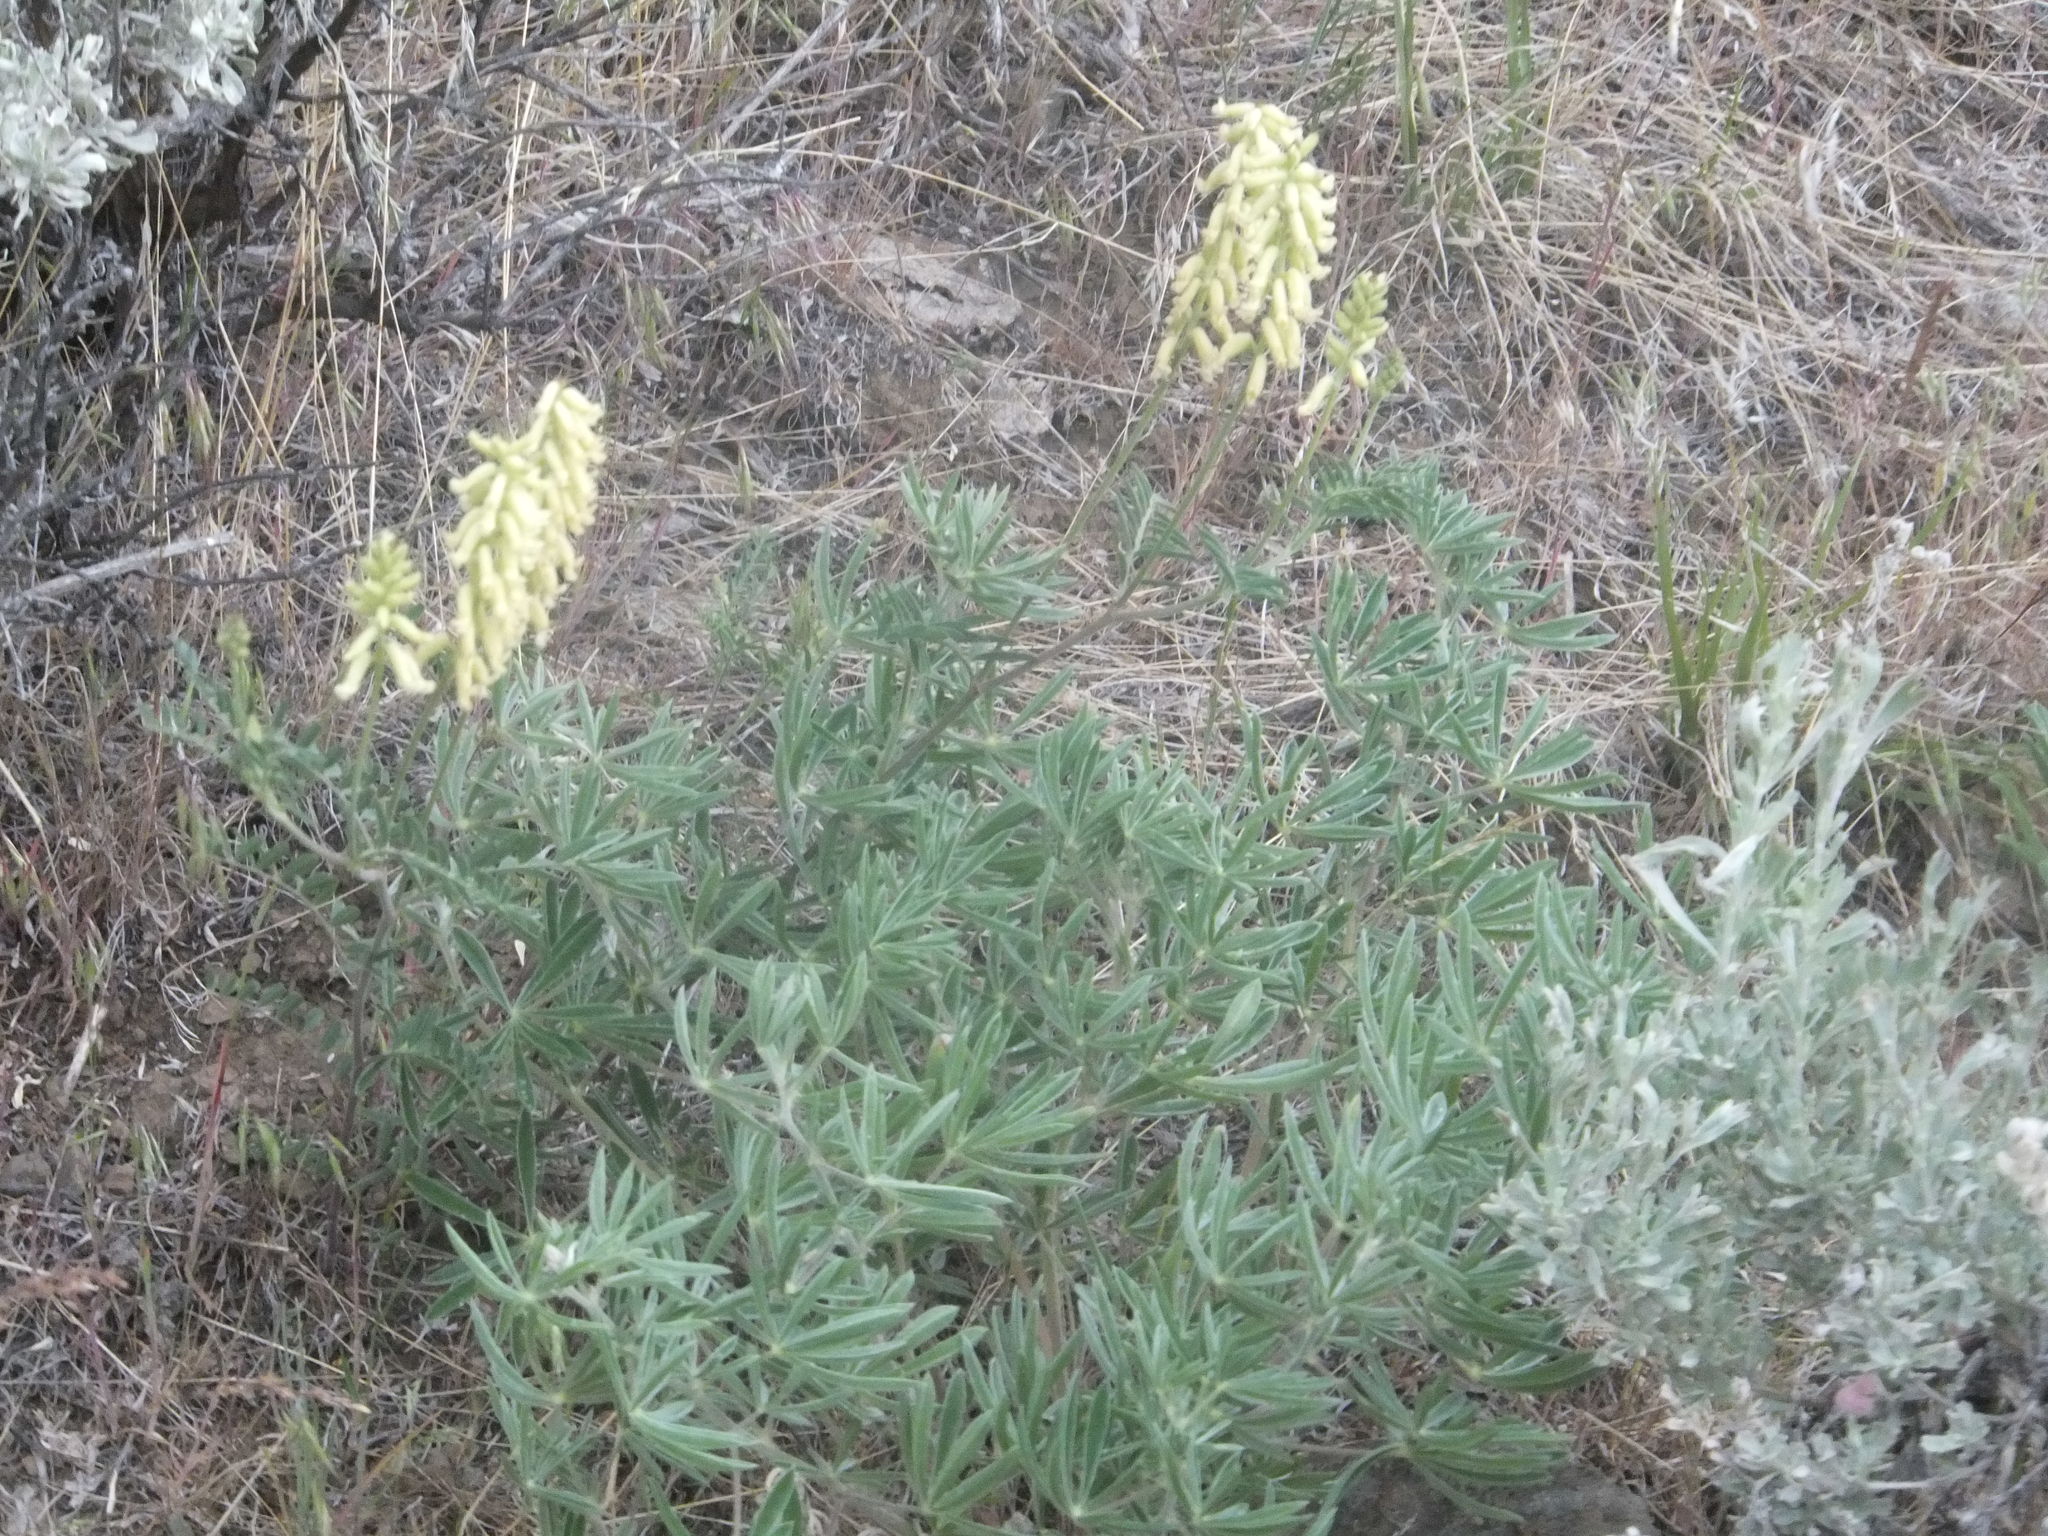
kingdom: Plantae
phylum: Tracheophyta
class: Magnoliopsida
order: Fabales
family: Fabaceae
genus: Astragalus
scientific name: Astragalus collinus
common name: Hill milk-vetch
